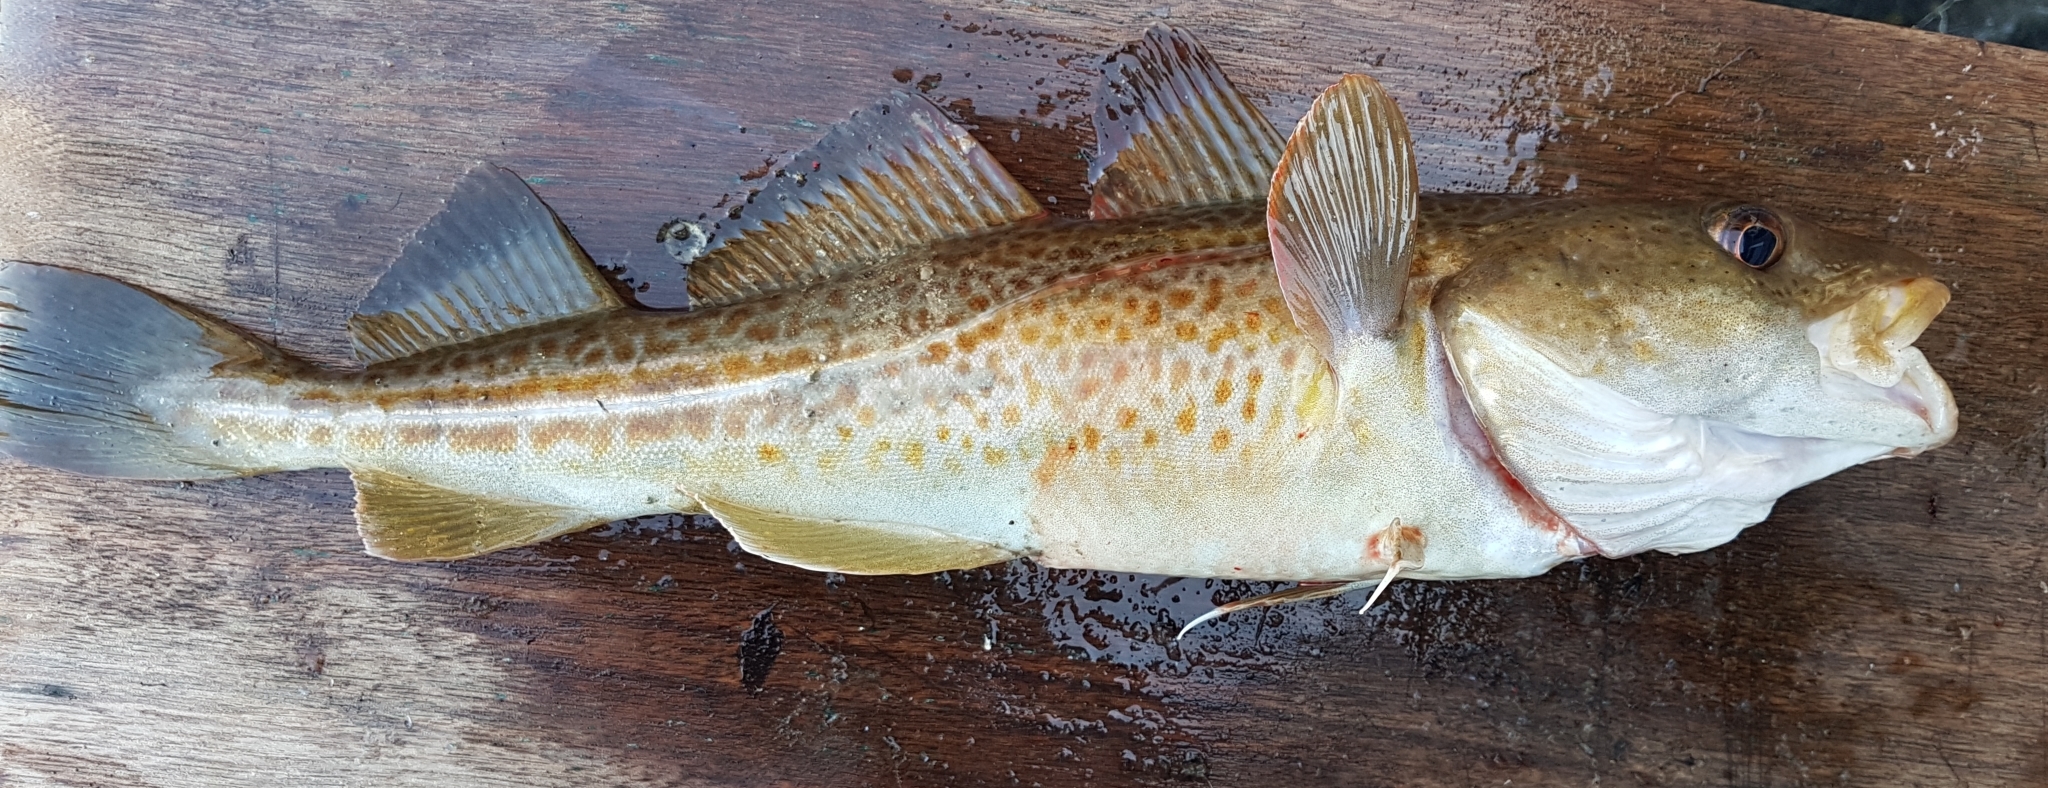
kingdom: Animalia
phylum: Chordata
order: Gadiformes
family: Gadidae
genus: Gadus
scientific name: Gadus morhua
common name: Atlantic cod
